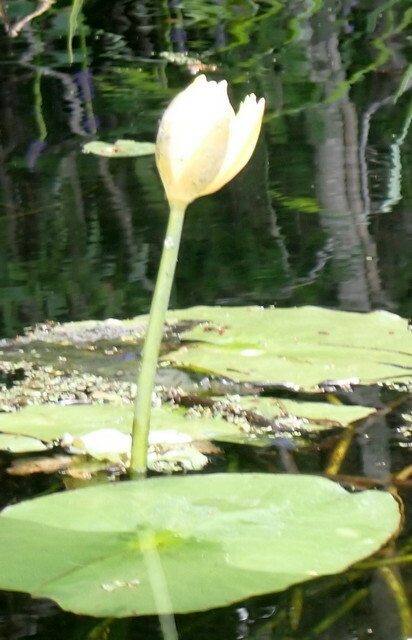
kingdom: Plantae
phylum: Tracheophyta
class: Magnoliopsida
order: Nymphaeales
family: Nymphaeaceae
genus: Nymphaea
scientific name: Nymphaea mexicana
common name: Banana water-lily
